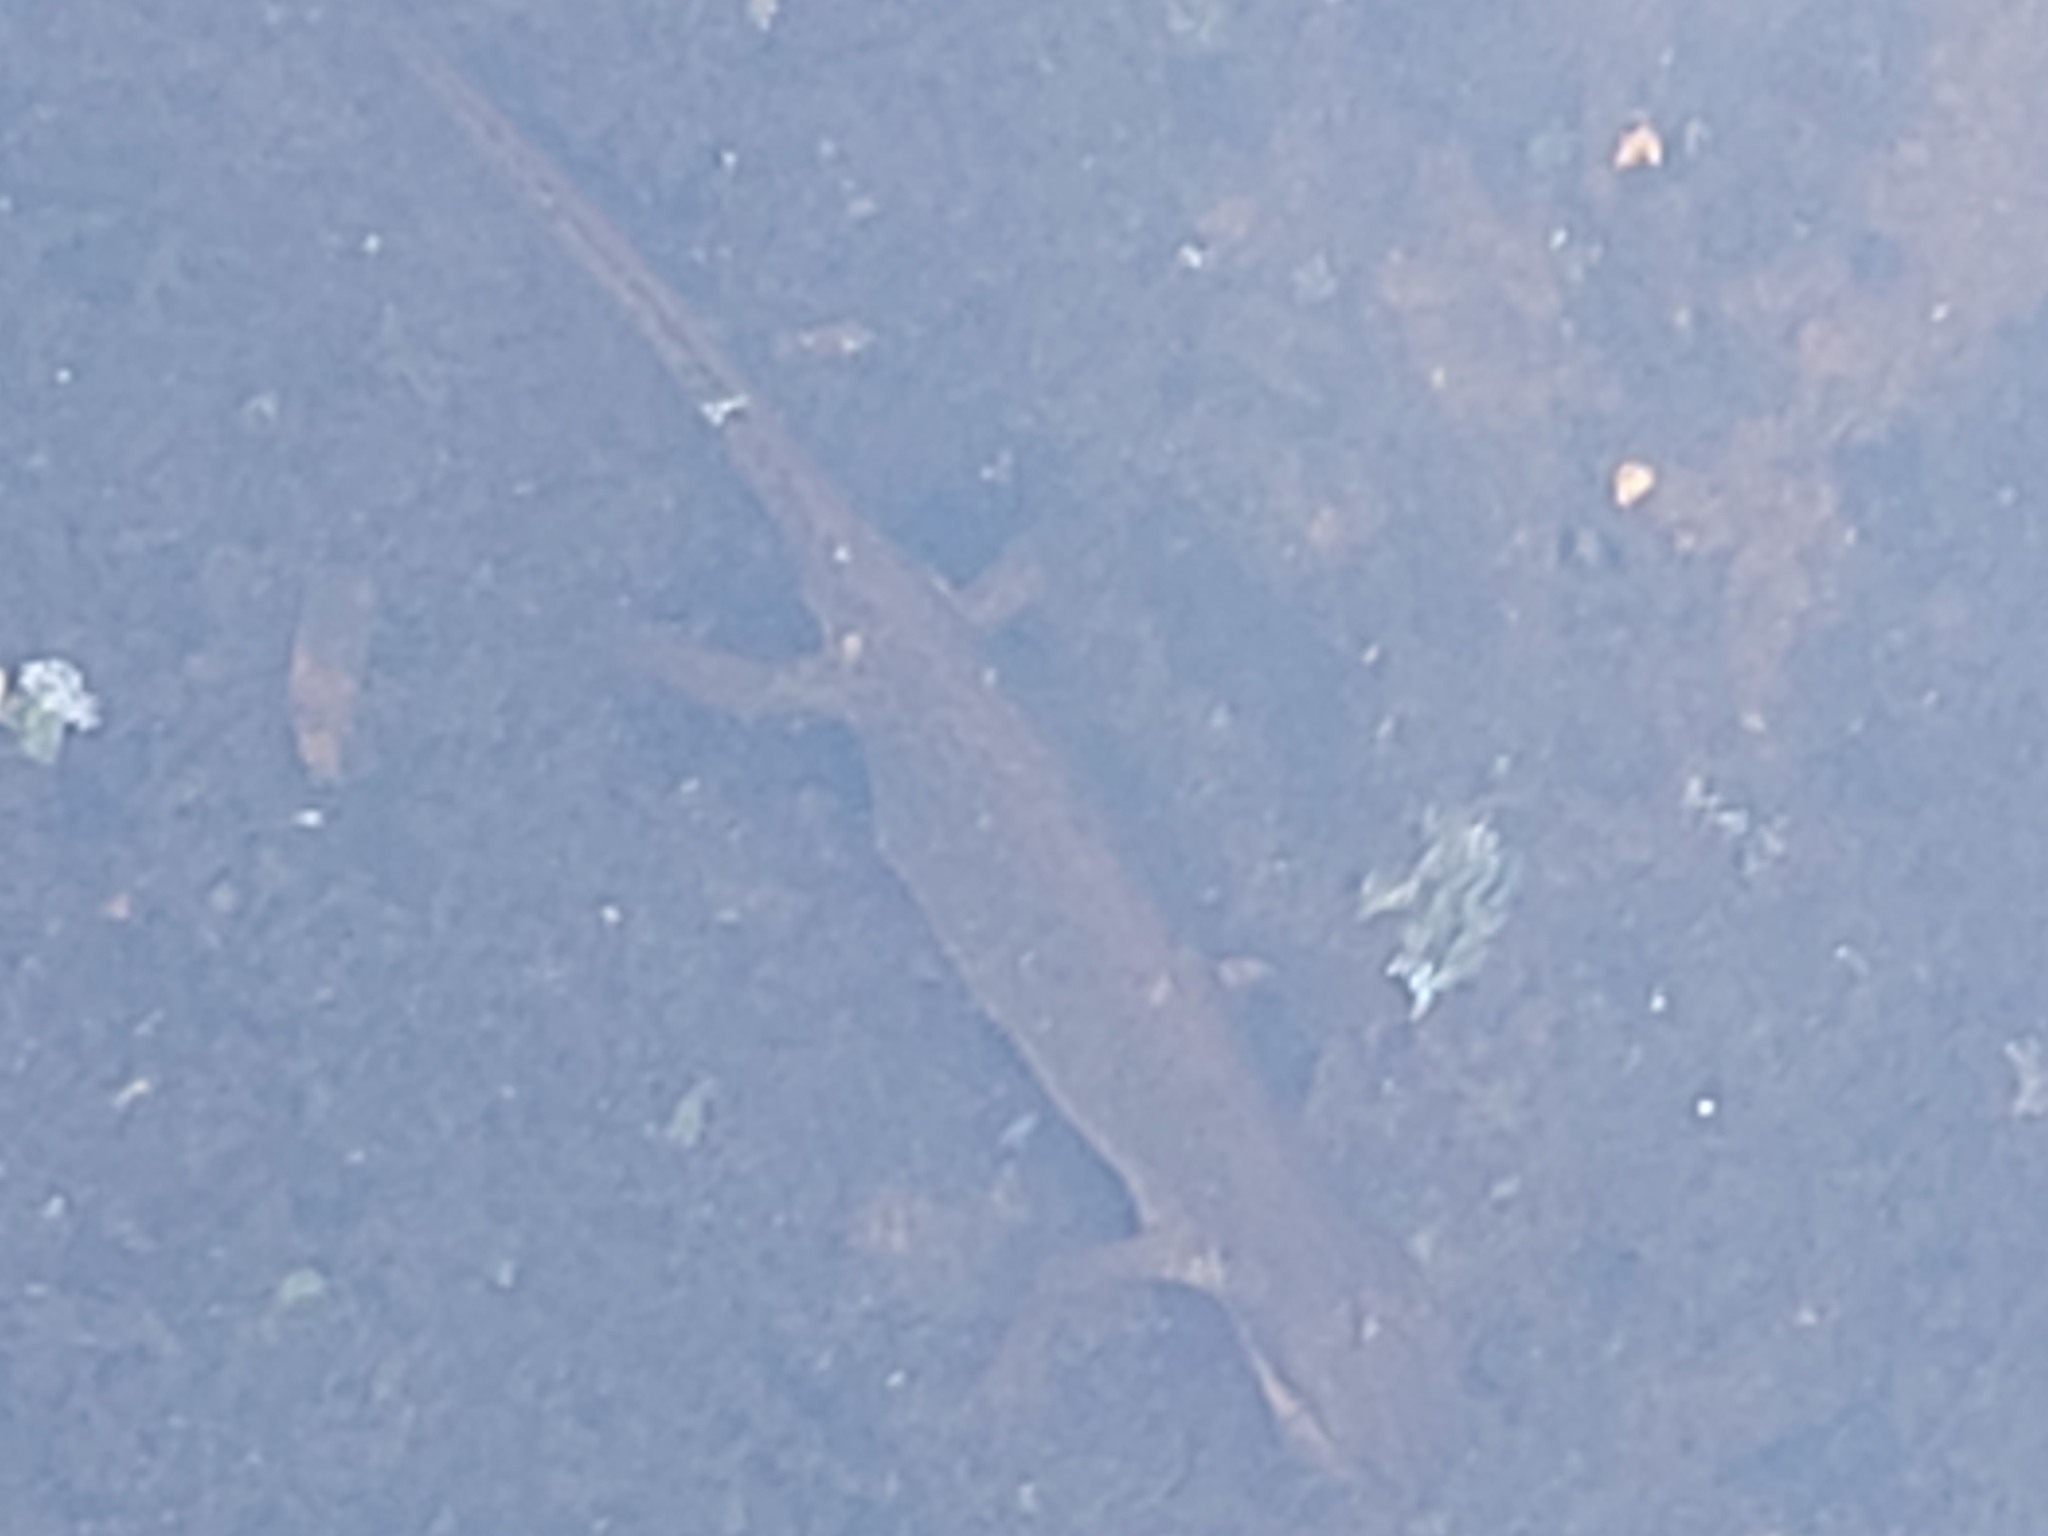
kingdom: Animalia
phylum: Chordata
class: Amphibia
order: Caudata
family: Salamandridae
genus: Lissotriton
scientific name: Lissotriton vulgaris
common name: Smooth newt
